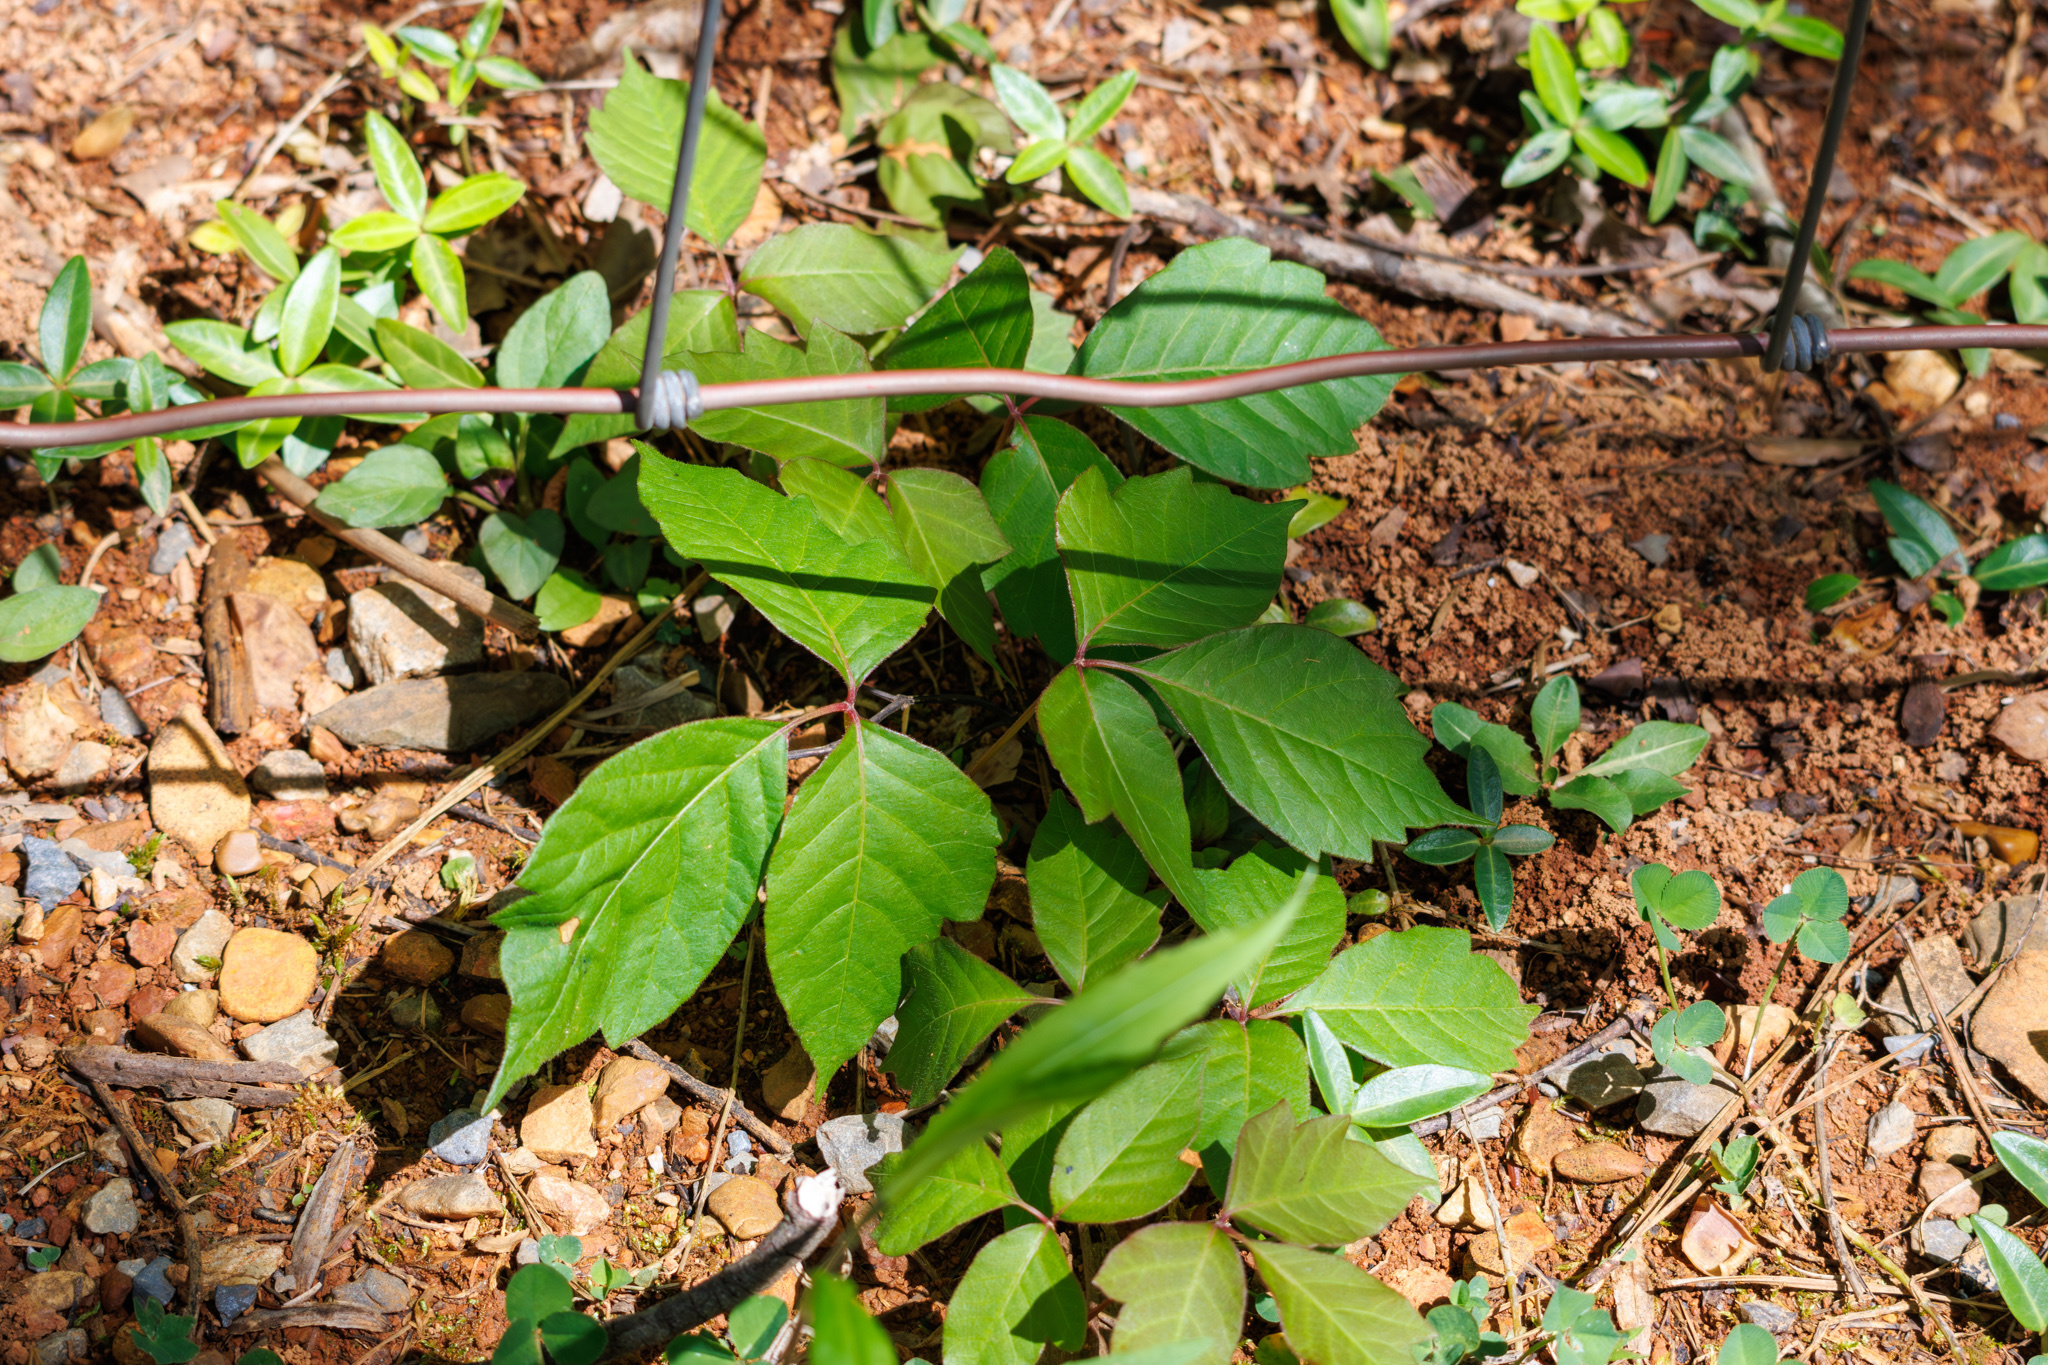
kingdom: Plantae
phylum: Tracheophyta
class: Magnoliopsida
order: Sapindales
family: Anacardiaceae
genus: Toxicodendron
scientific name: Toxicodendron radicans
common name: Poison ivy
